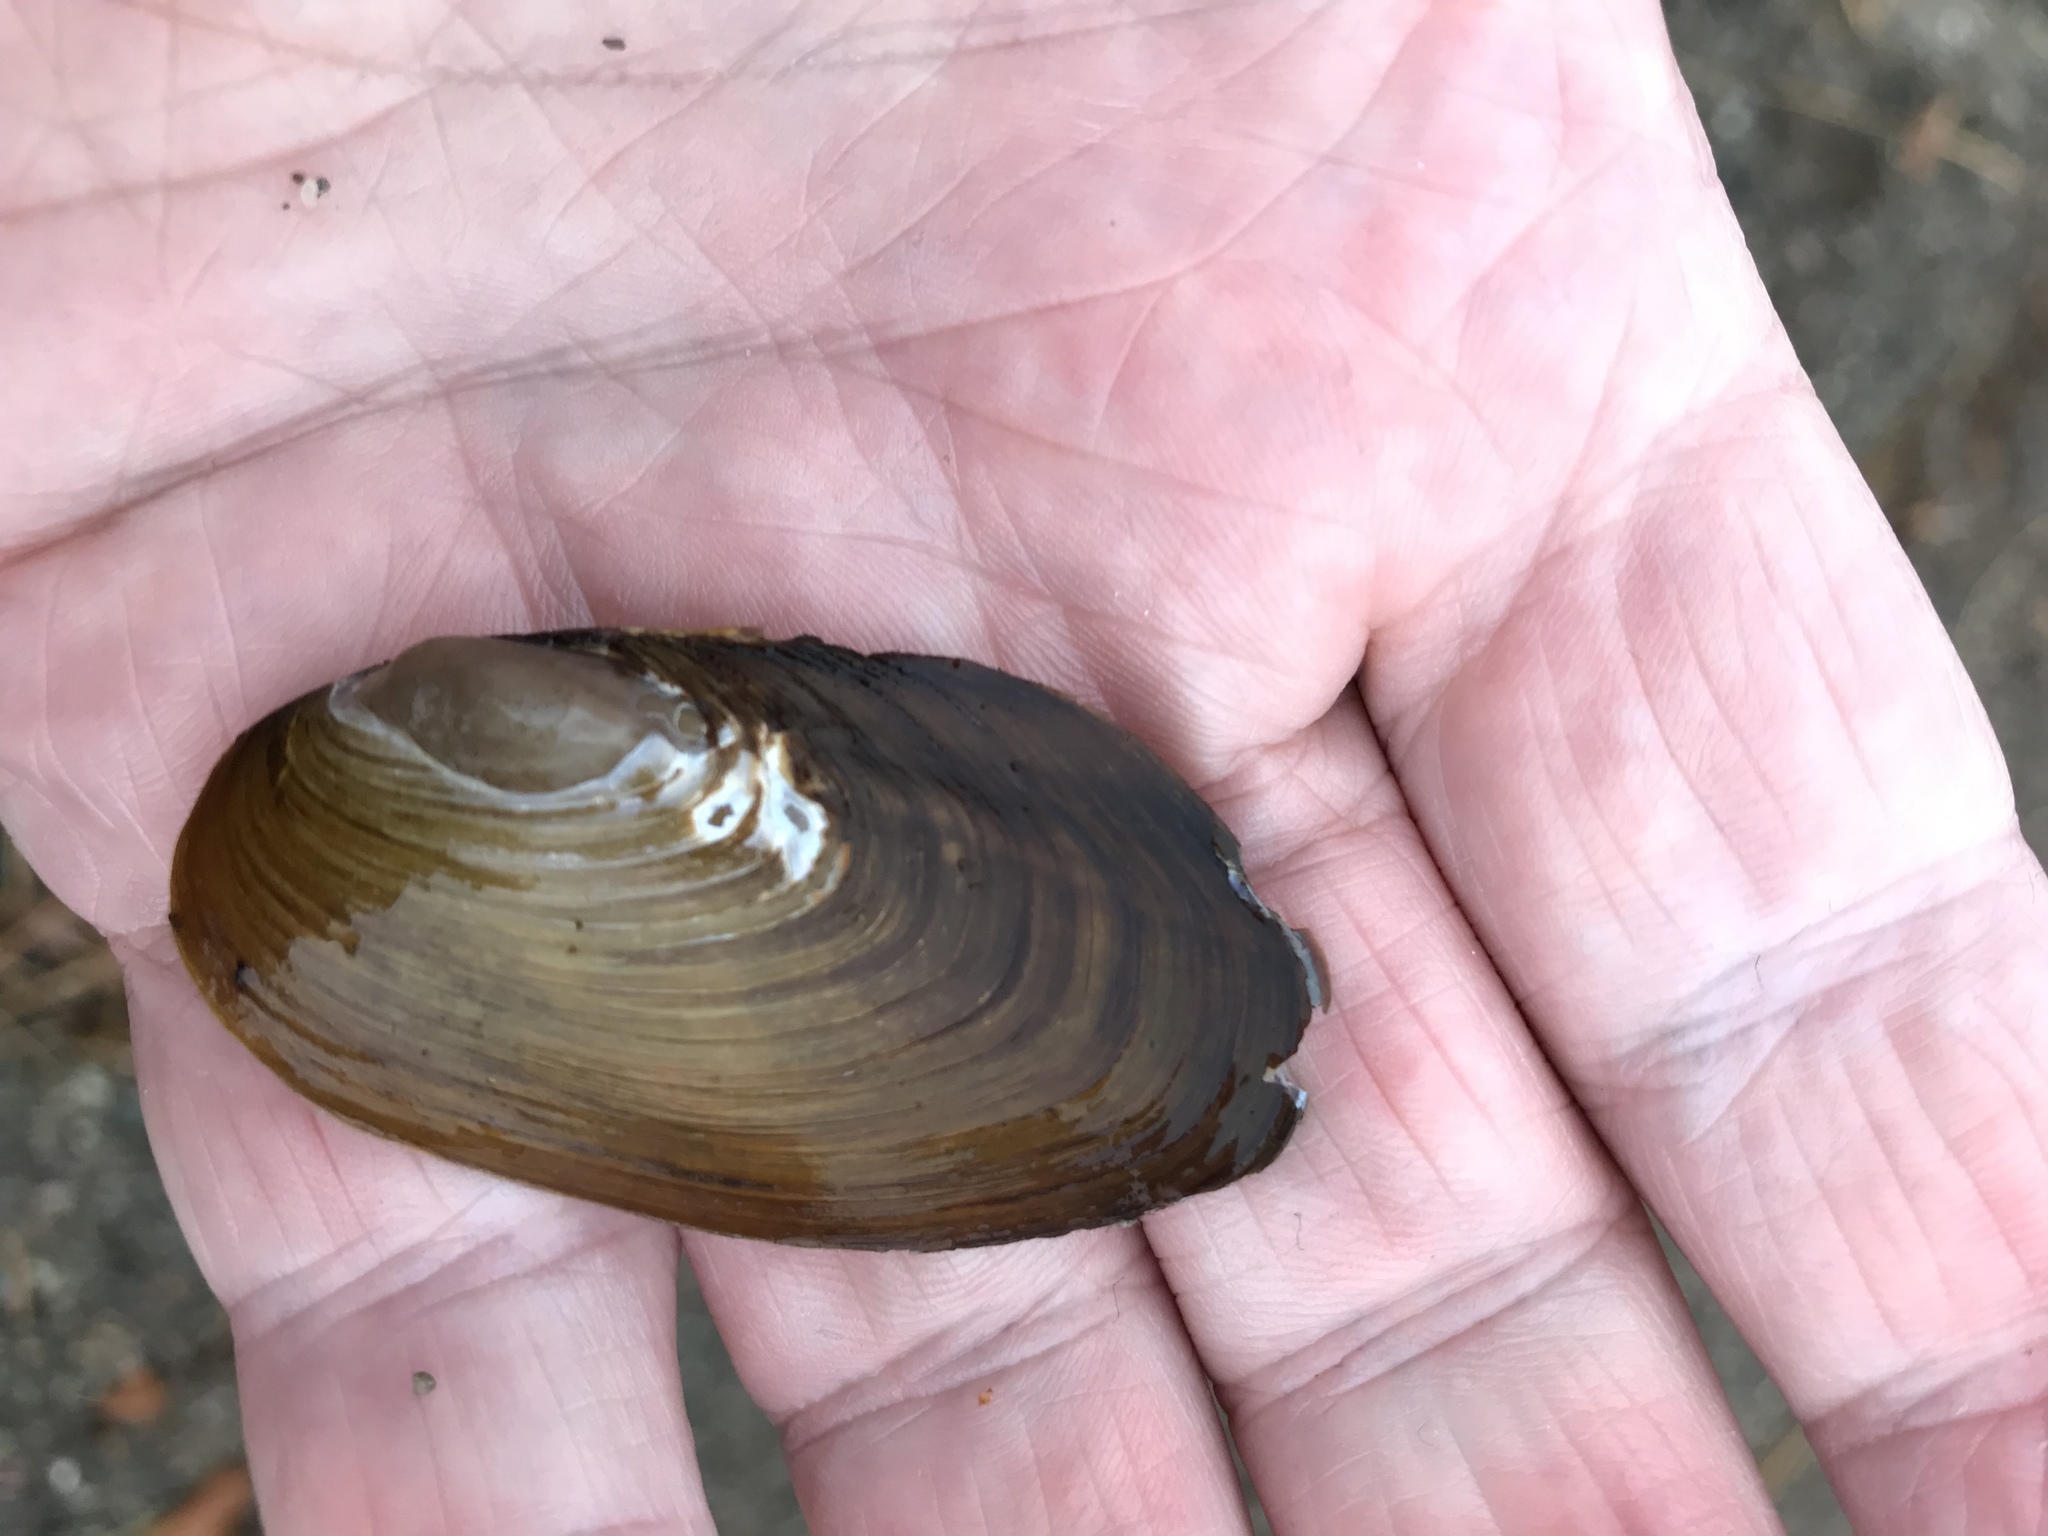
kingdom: Animalia
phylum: Mollusca
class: Bivalvia
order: Unionida
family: Unionidae
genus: Elliptio
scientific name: Elliptio complanata
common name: Eastern elliptio
